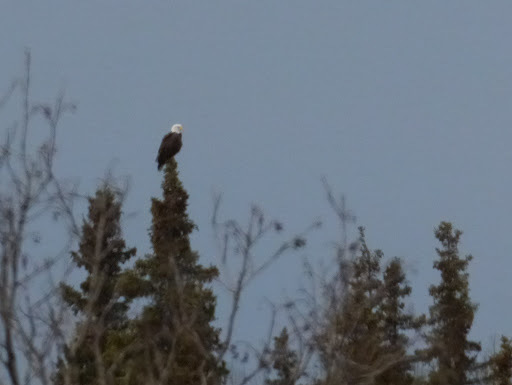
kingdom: Animalia
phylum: Chordata
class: Aves
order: Accipitriformes
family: Accipitridae
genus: Haliaeetus
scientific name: Haliaeetus leucocephalus
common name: Bald eagle
